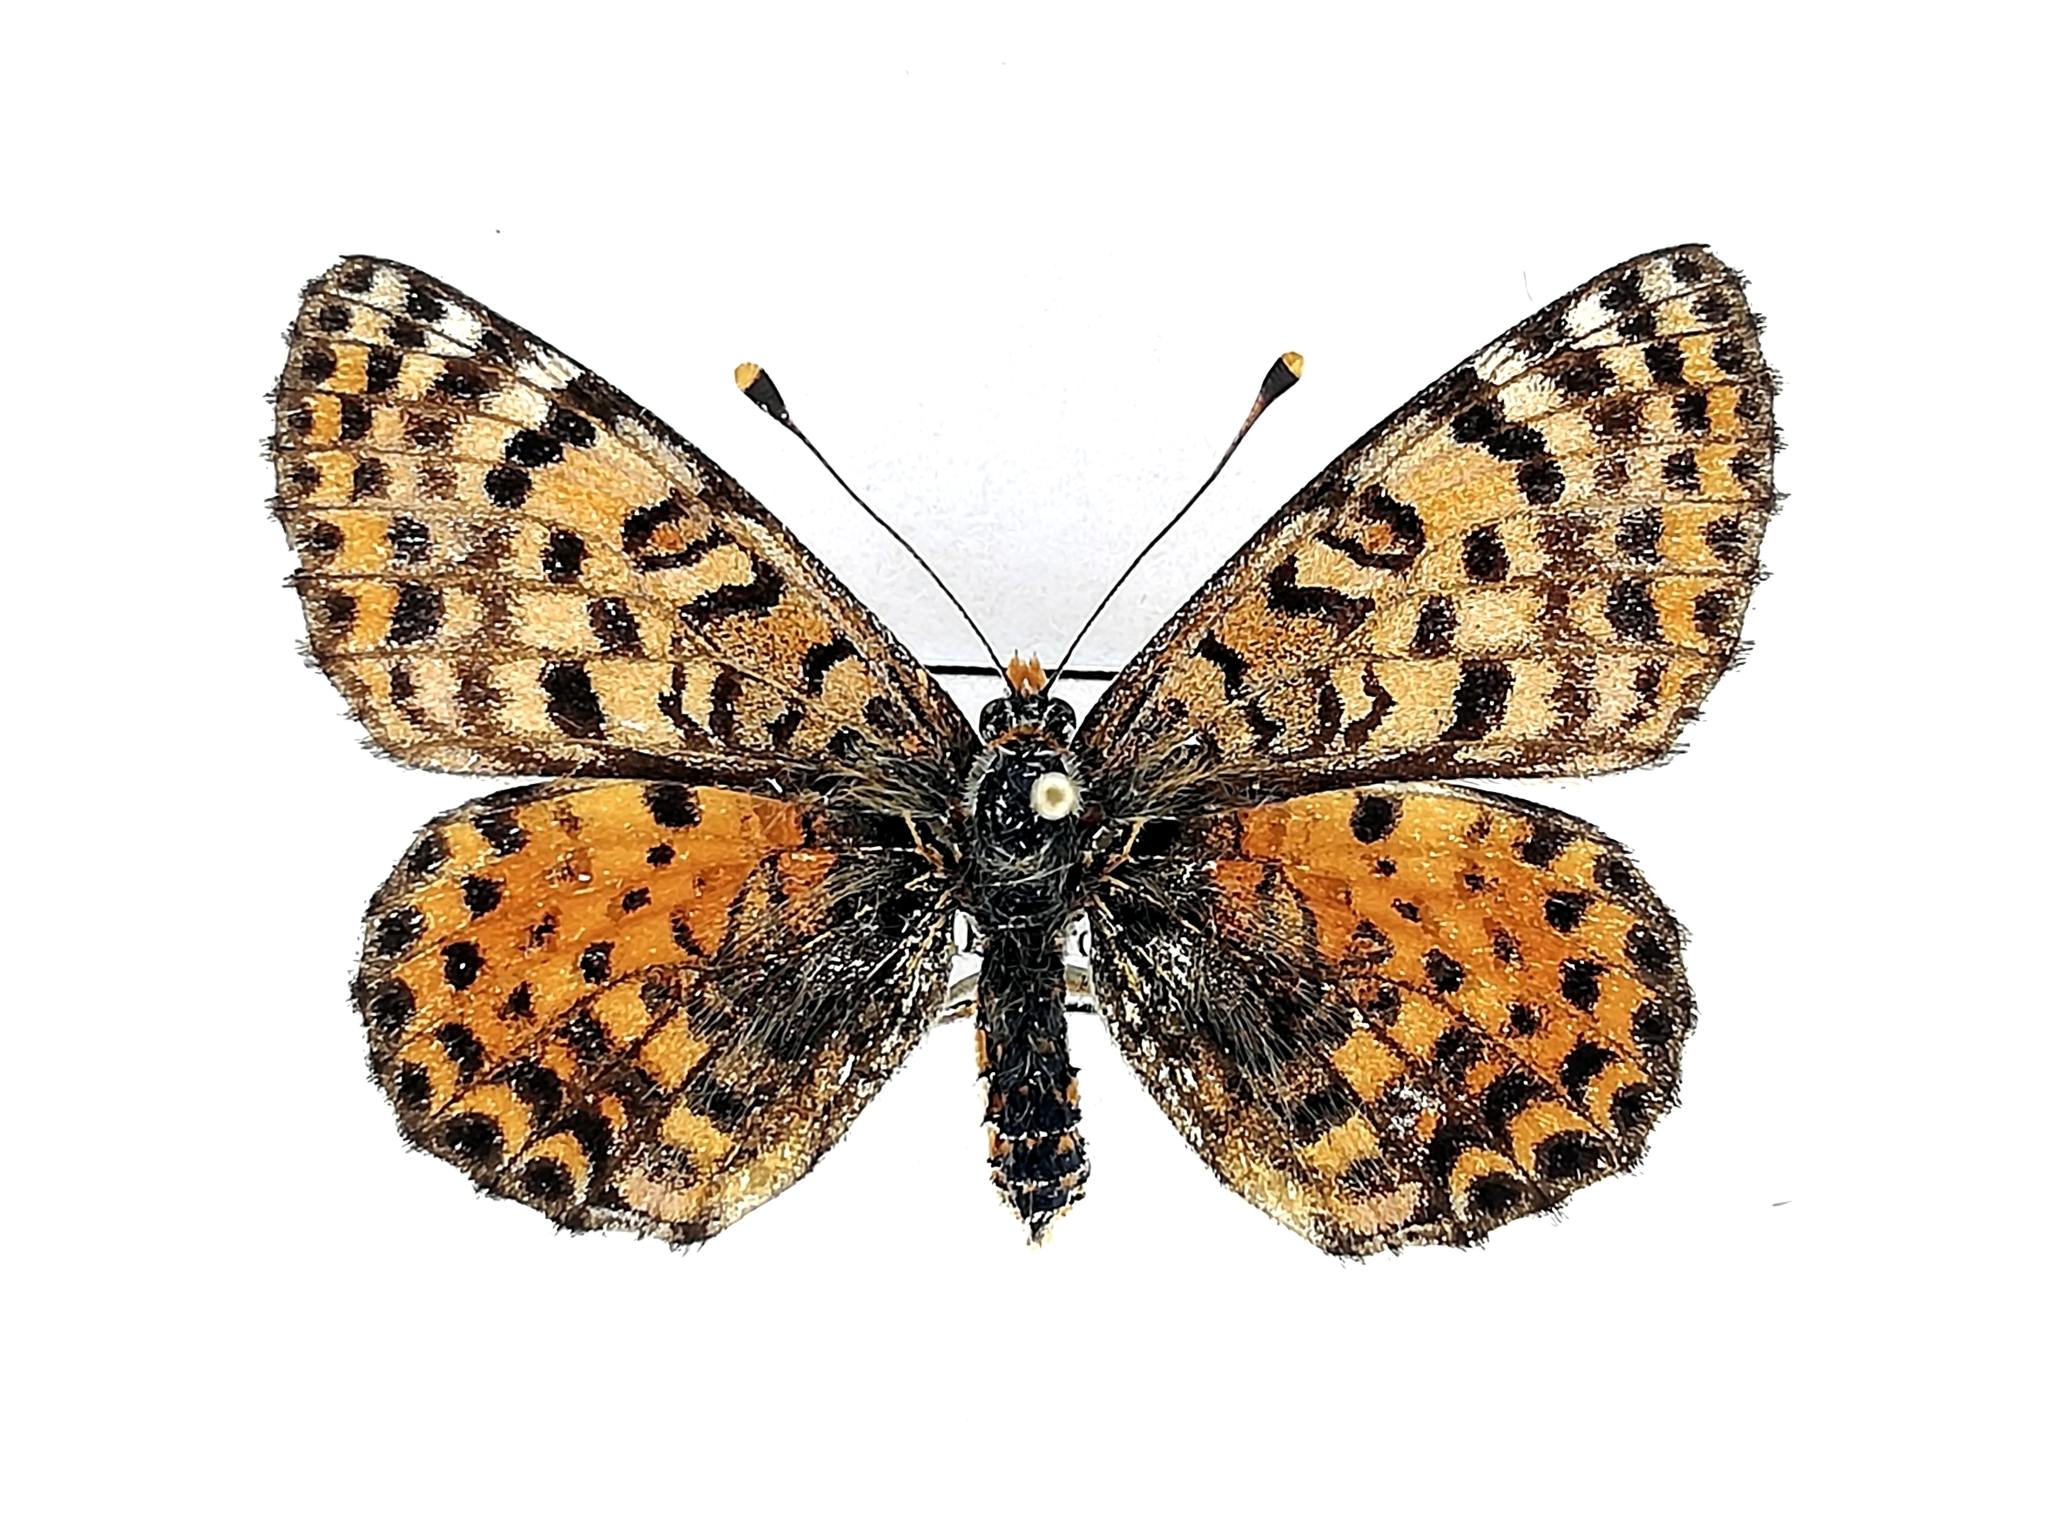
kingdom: Animalia
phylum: Arthropoda
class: Insecta
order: Lepidoptera
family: Nymphalidae
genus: Melitaea
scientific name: Melitaea didyma
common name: Spotted fritillary
